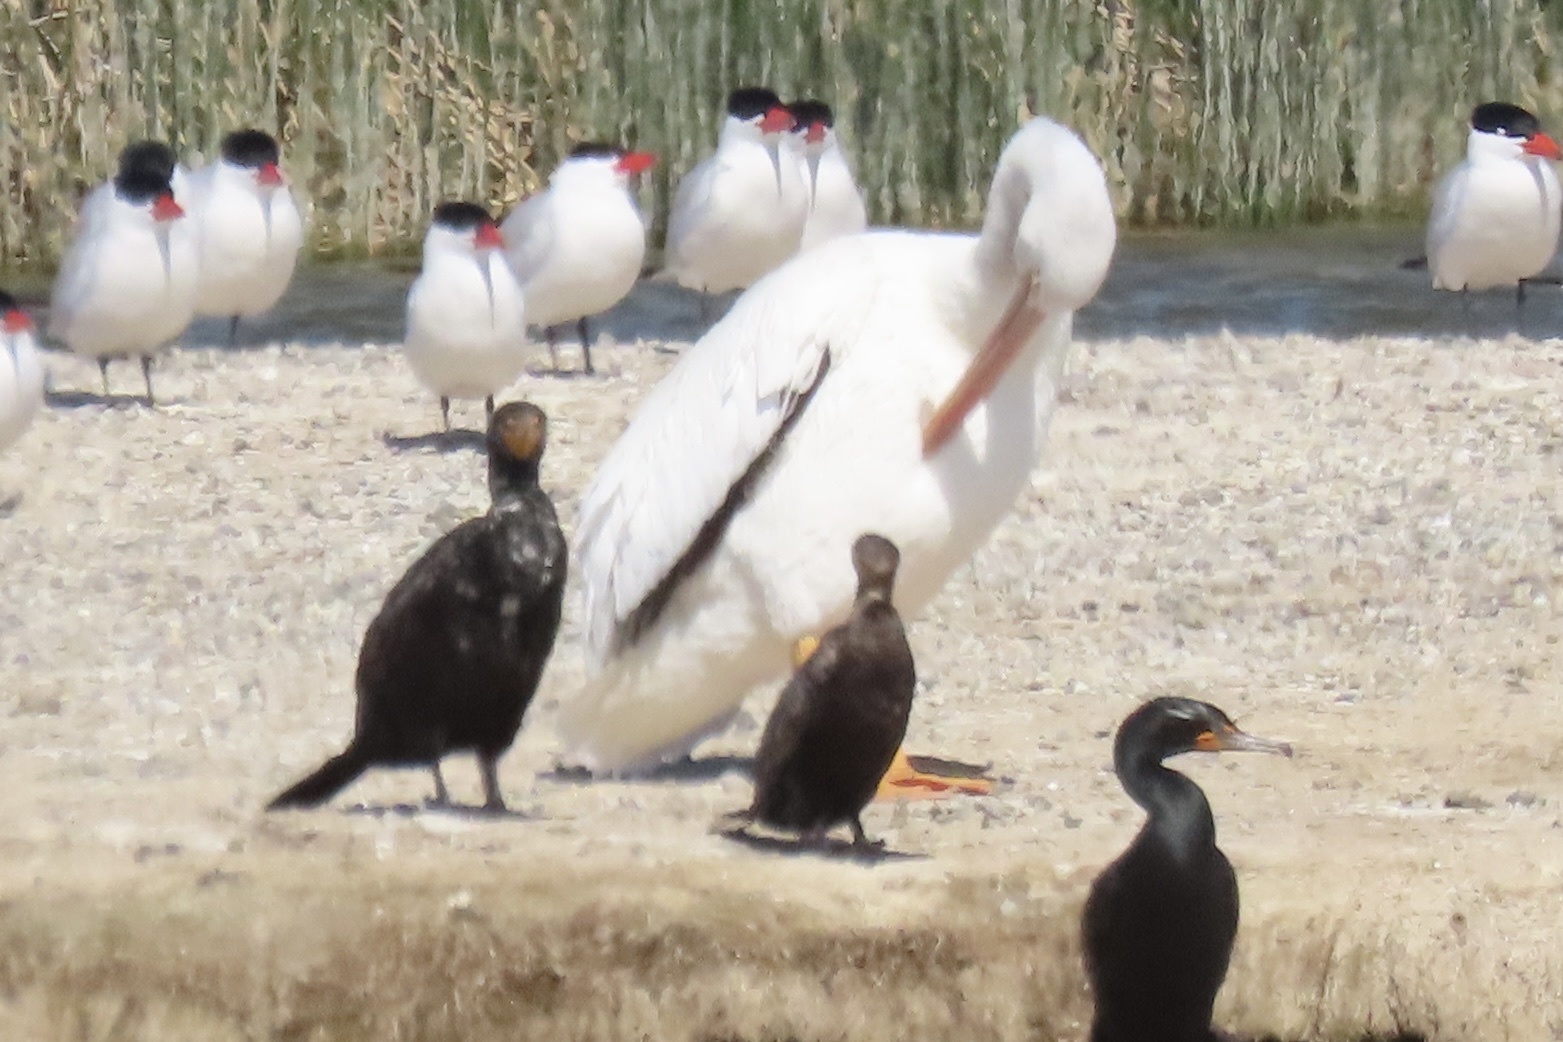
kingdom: Animalia
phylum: Chordata
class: Aves
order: Pelecaniformes
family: Pelecanidae
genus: Pelecanus
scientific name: Pelecanus erythrorhynchos
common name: American white pelican
